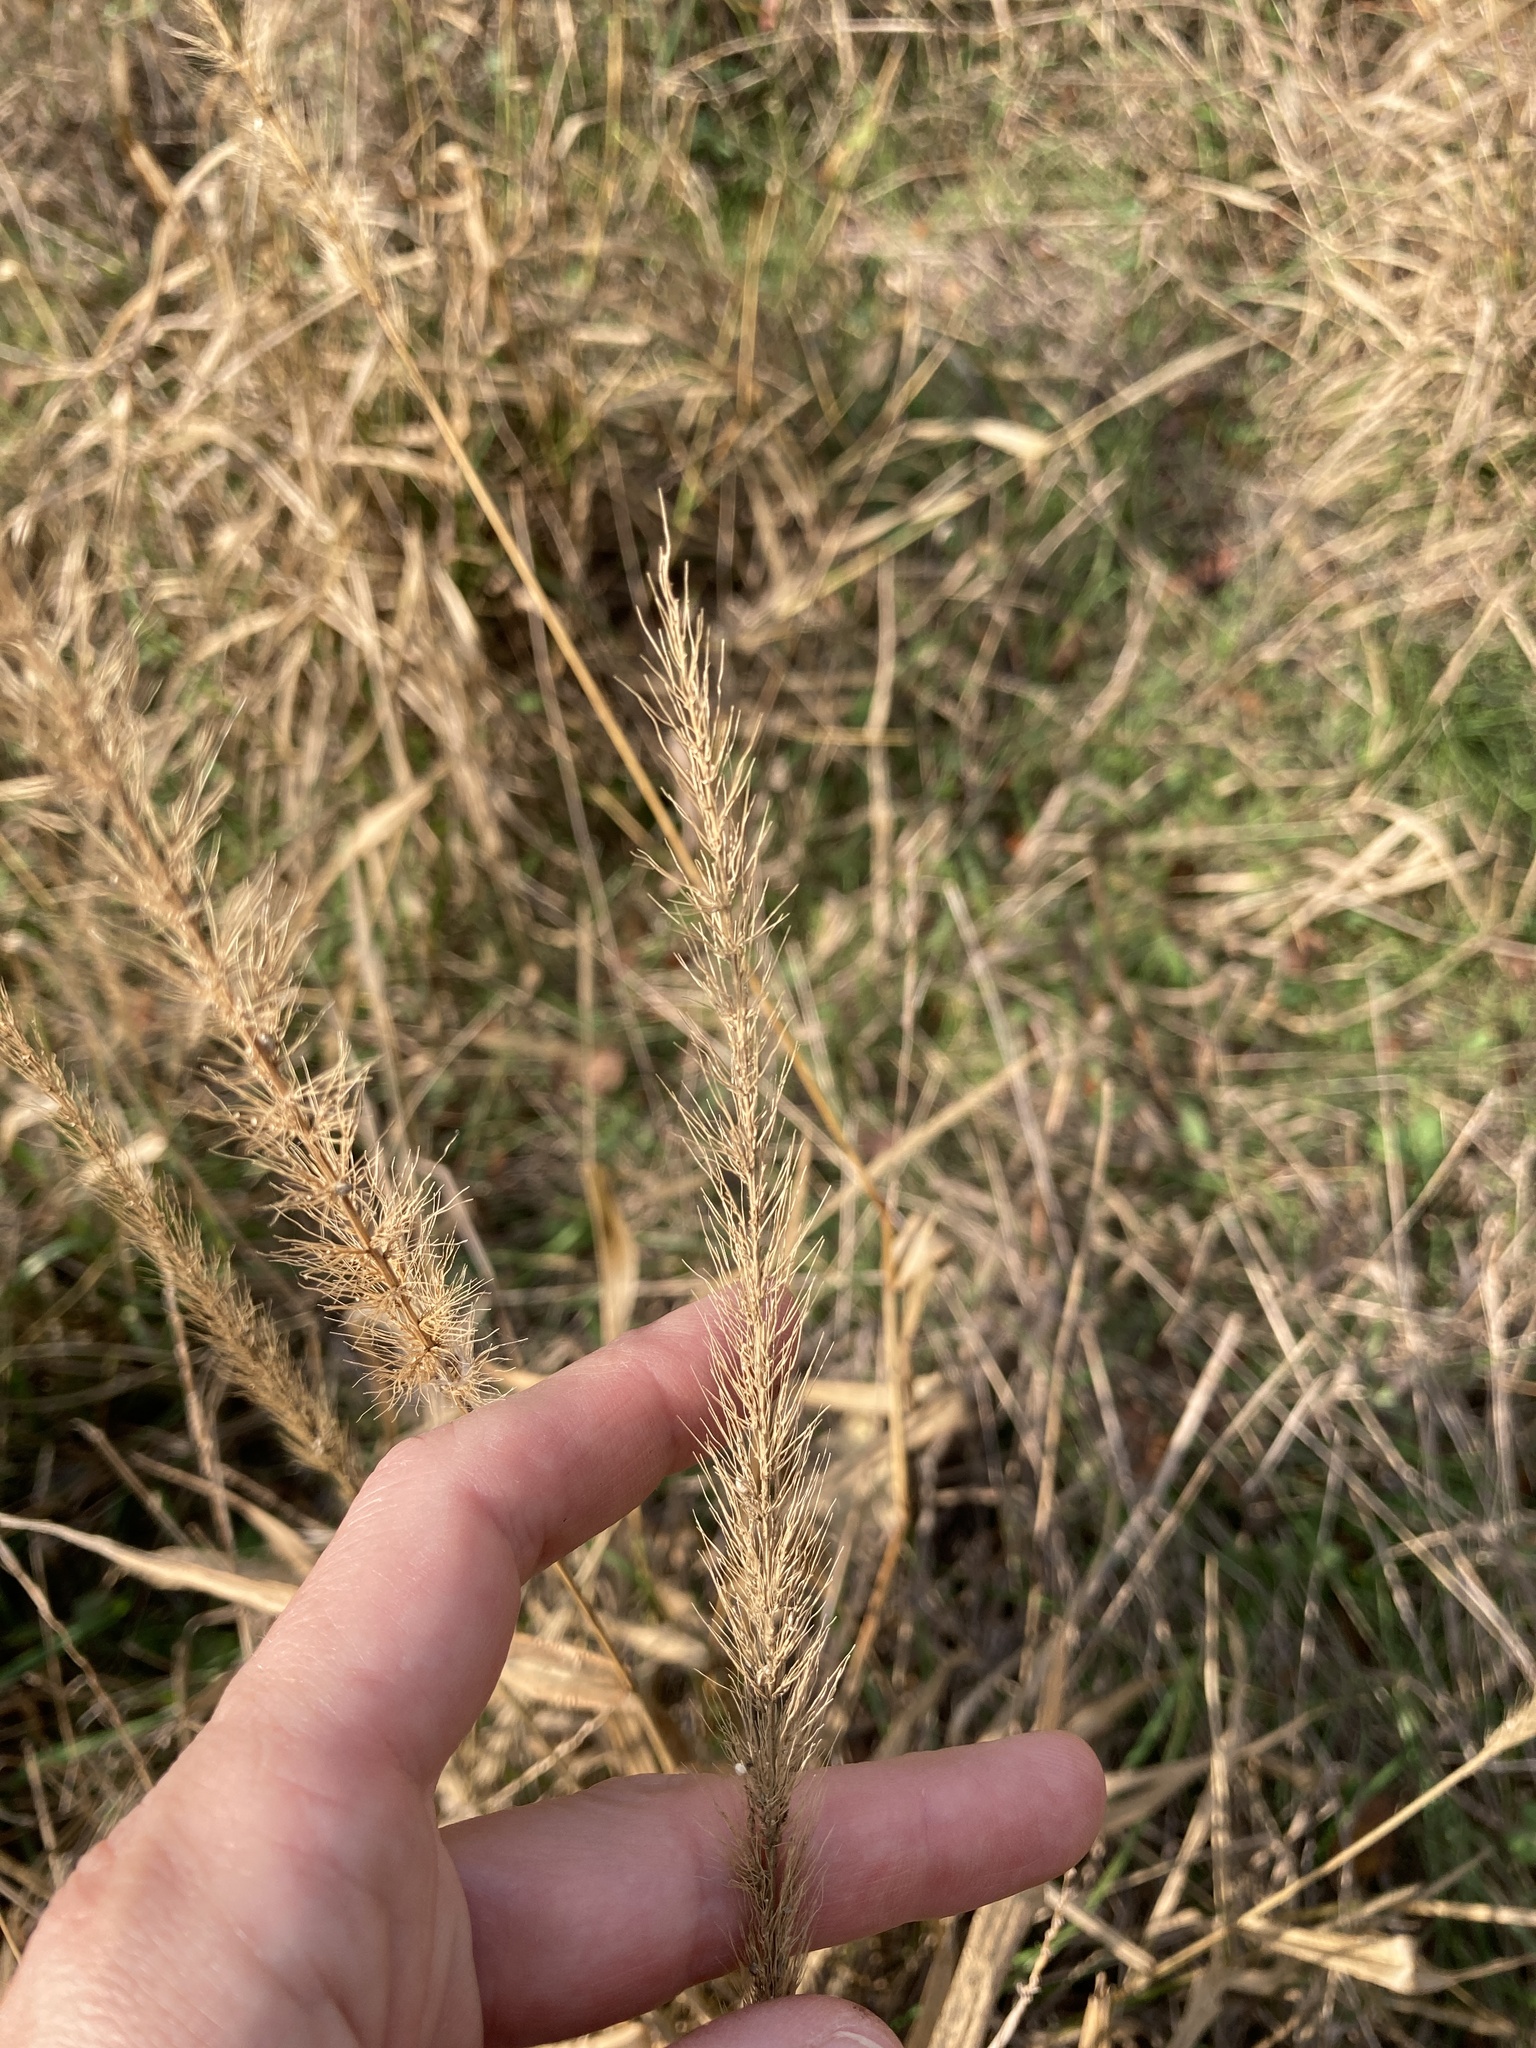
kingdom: Plantae
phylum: Tracheophyta
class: Liliopsida
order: Poales
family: Poaceae
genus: Setaria
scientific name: Setaria scheelei
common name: Southwestern bristle grass
